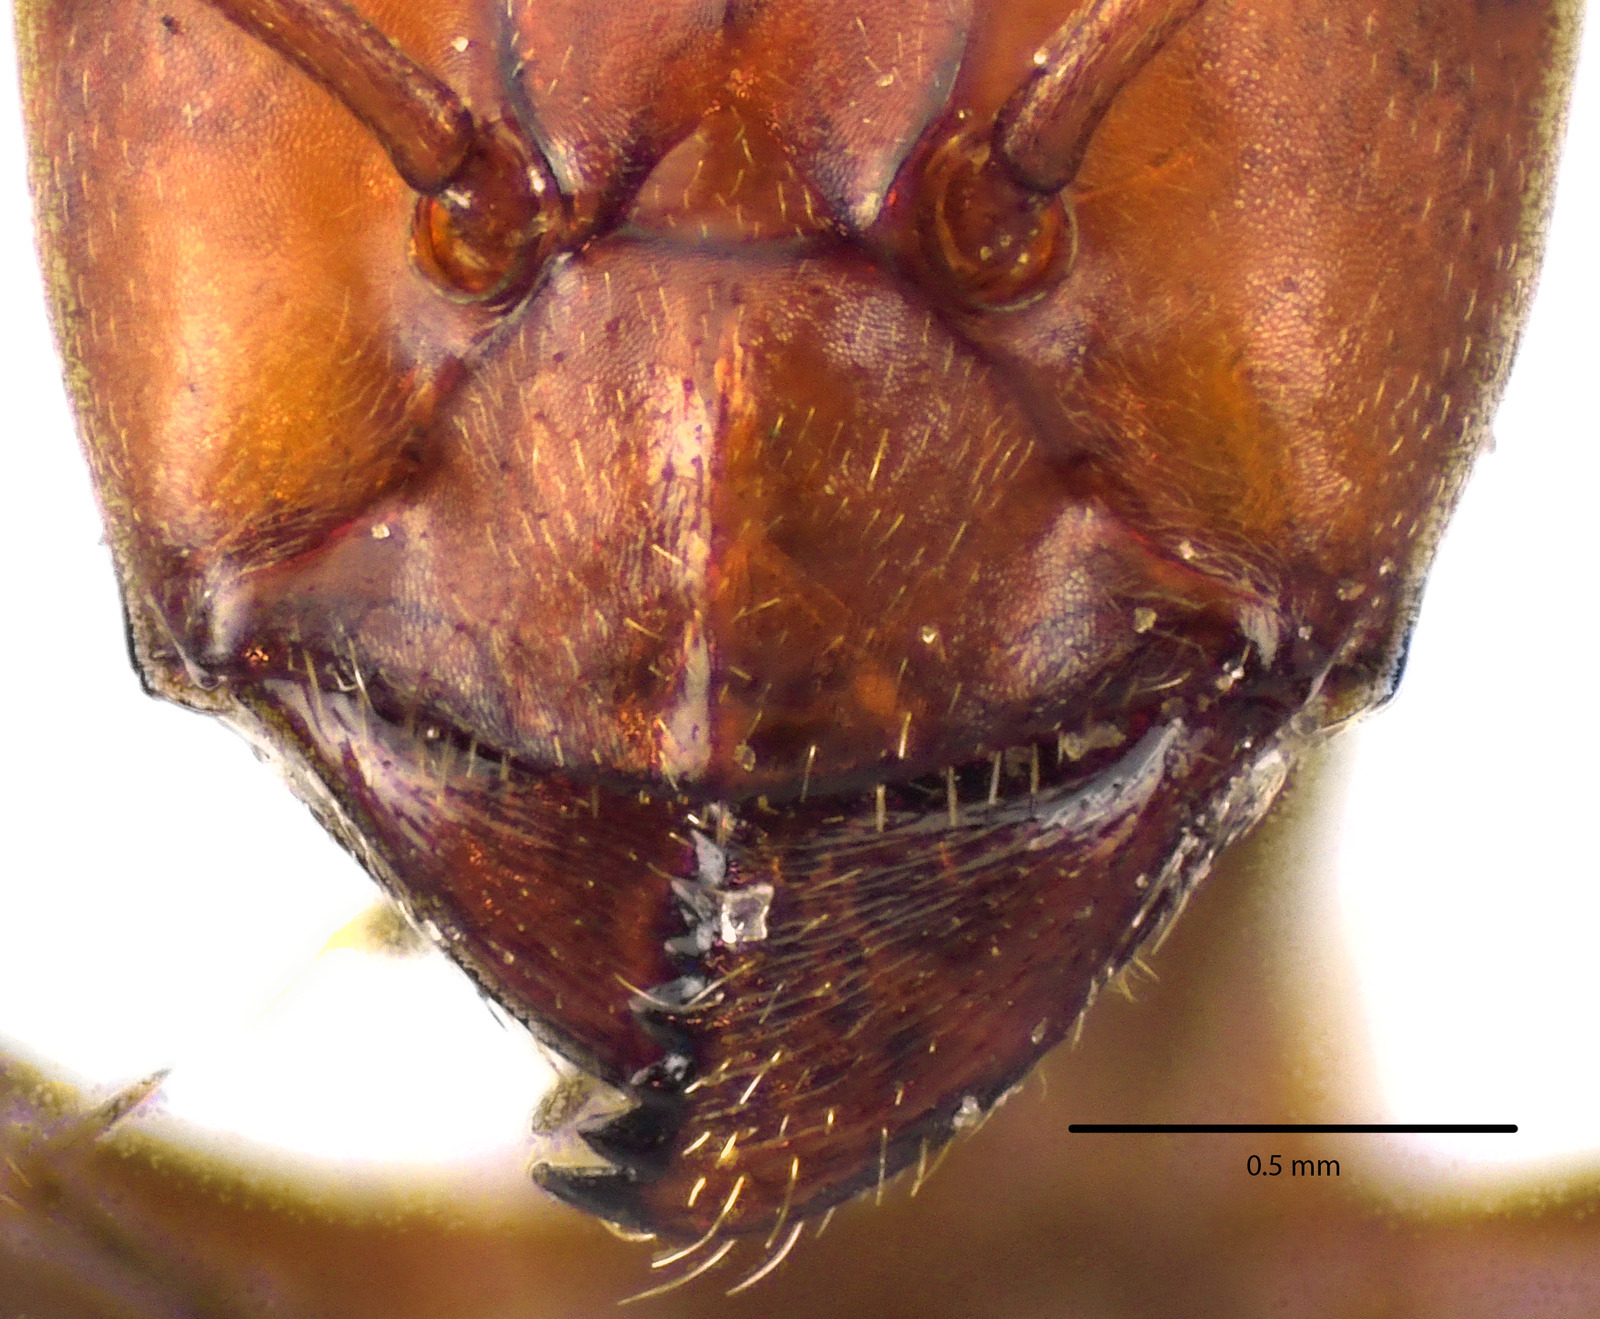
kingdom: Animalia
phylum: Arthropoda
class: Insecta
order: Hymenoptera
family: Formicidae
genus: Formica
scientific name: Formica prociliata
